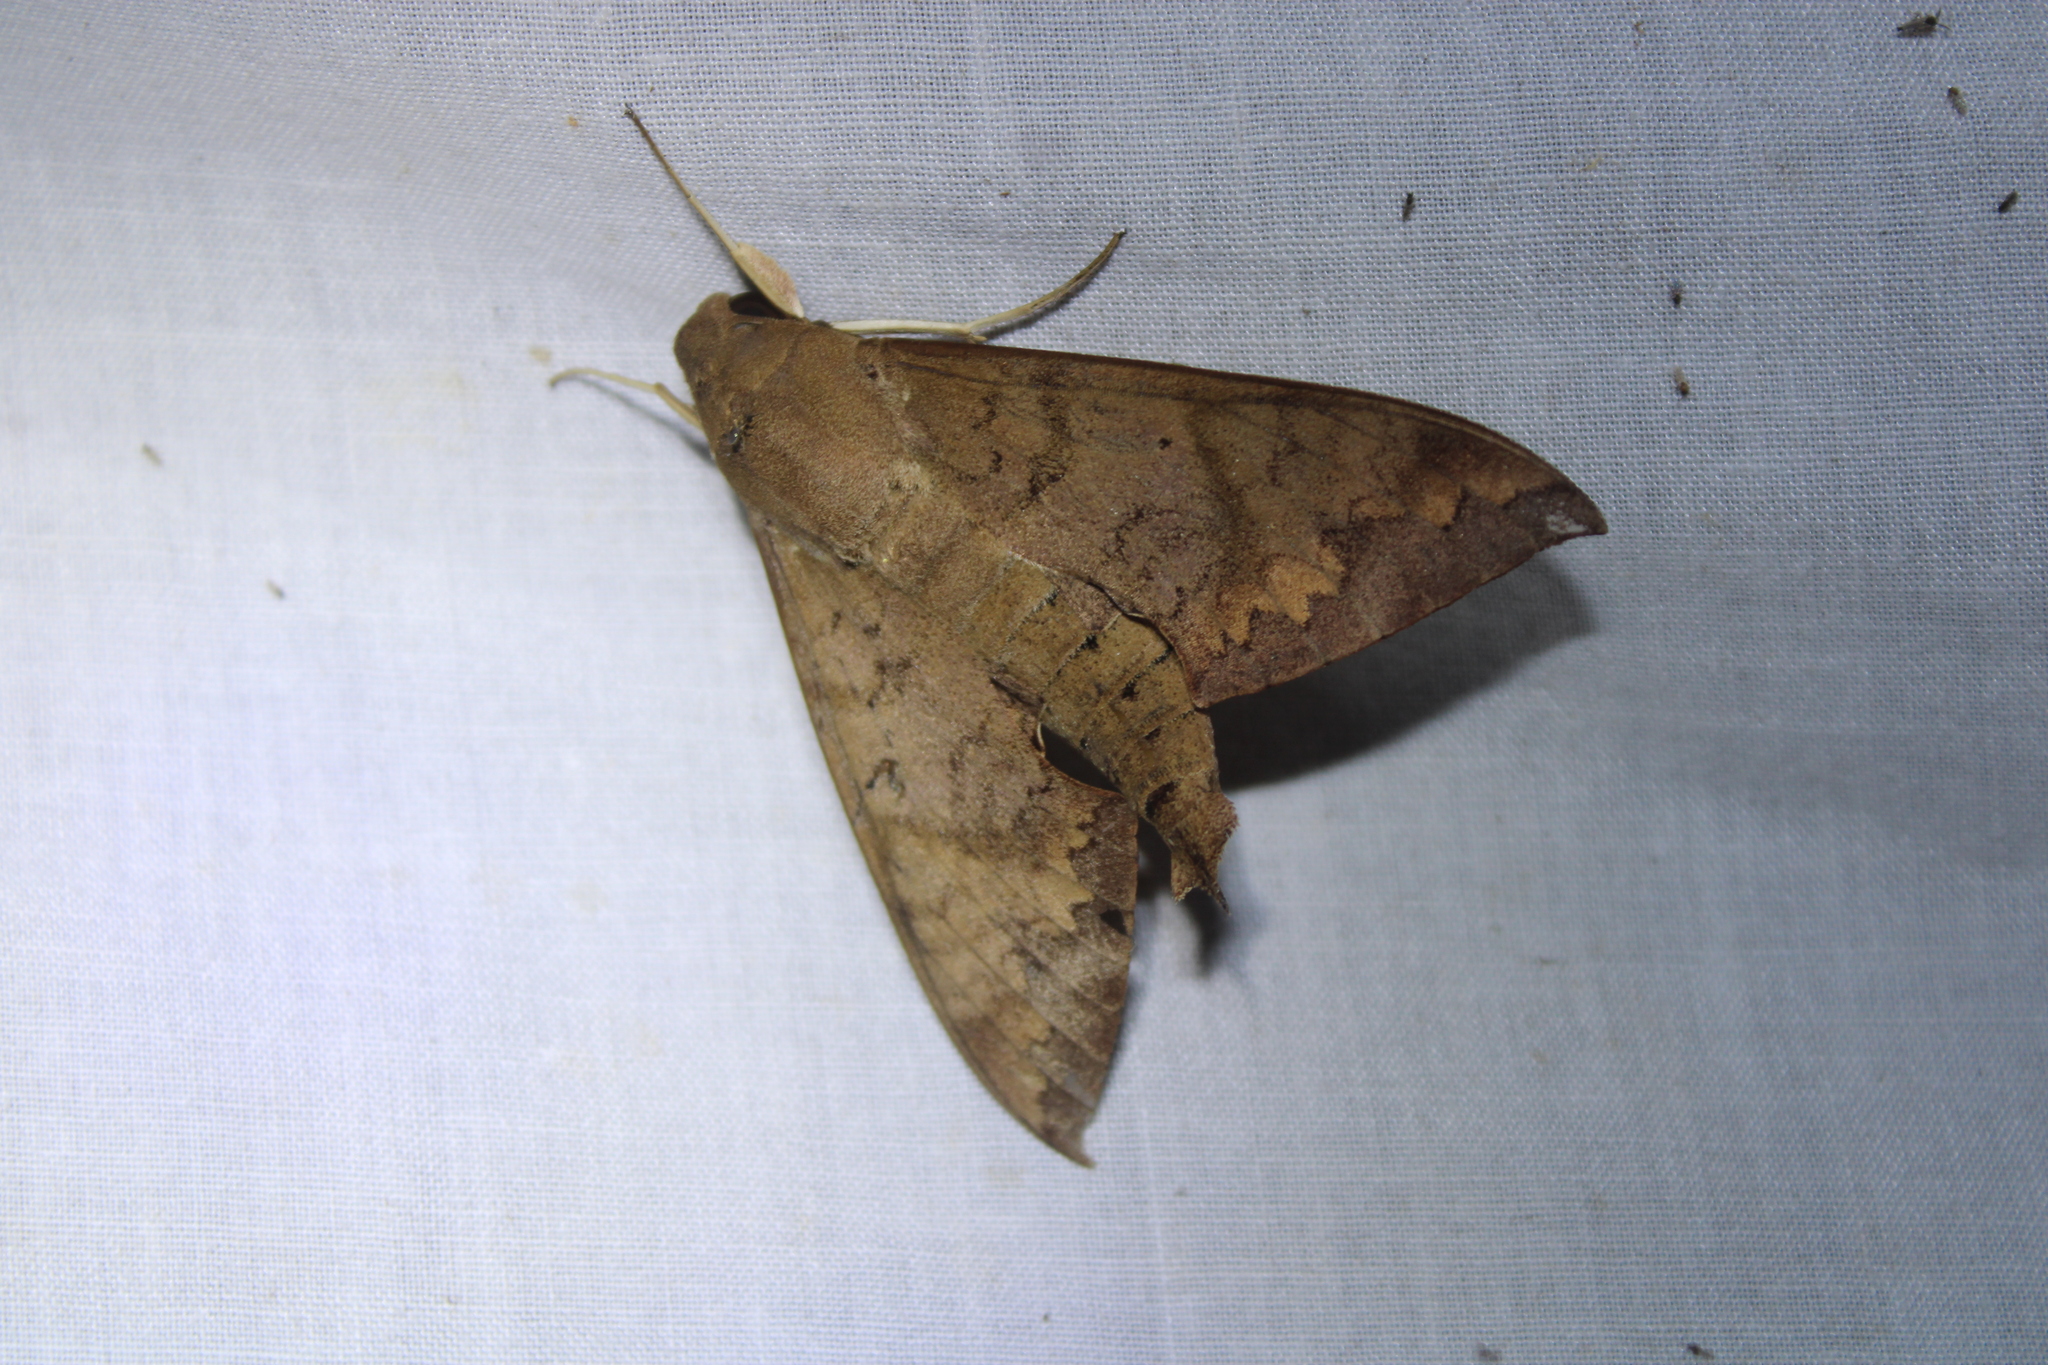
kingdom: Animalia
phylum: Arthropoda
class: Insecta
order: Lepidoptera
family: Sphingidae
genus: Pachylioides
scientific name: Pachylioides resumens
